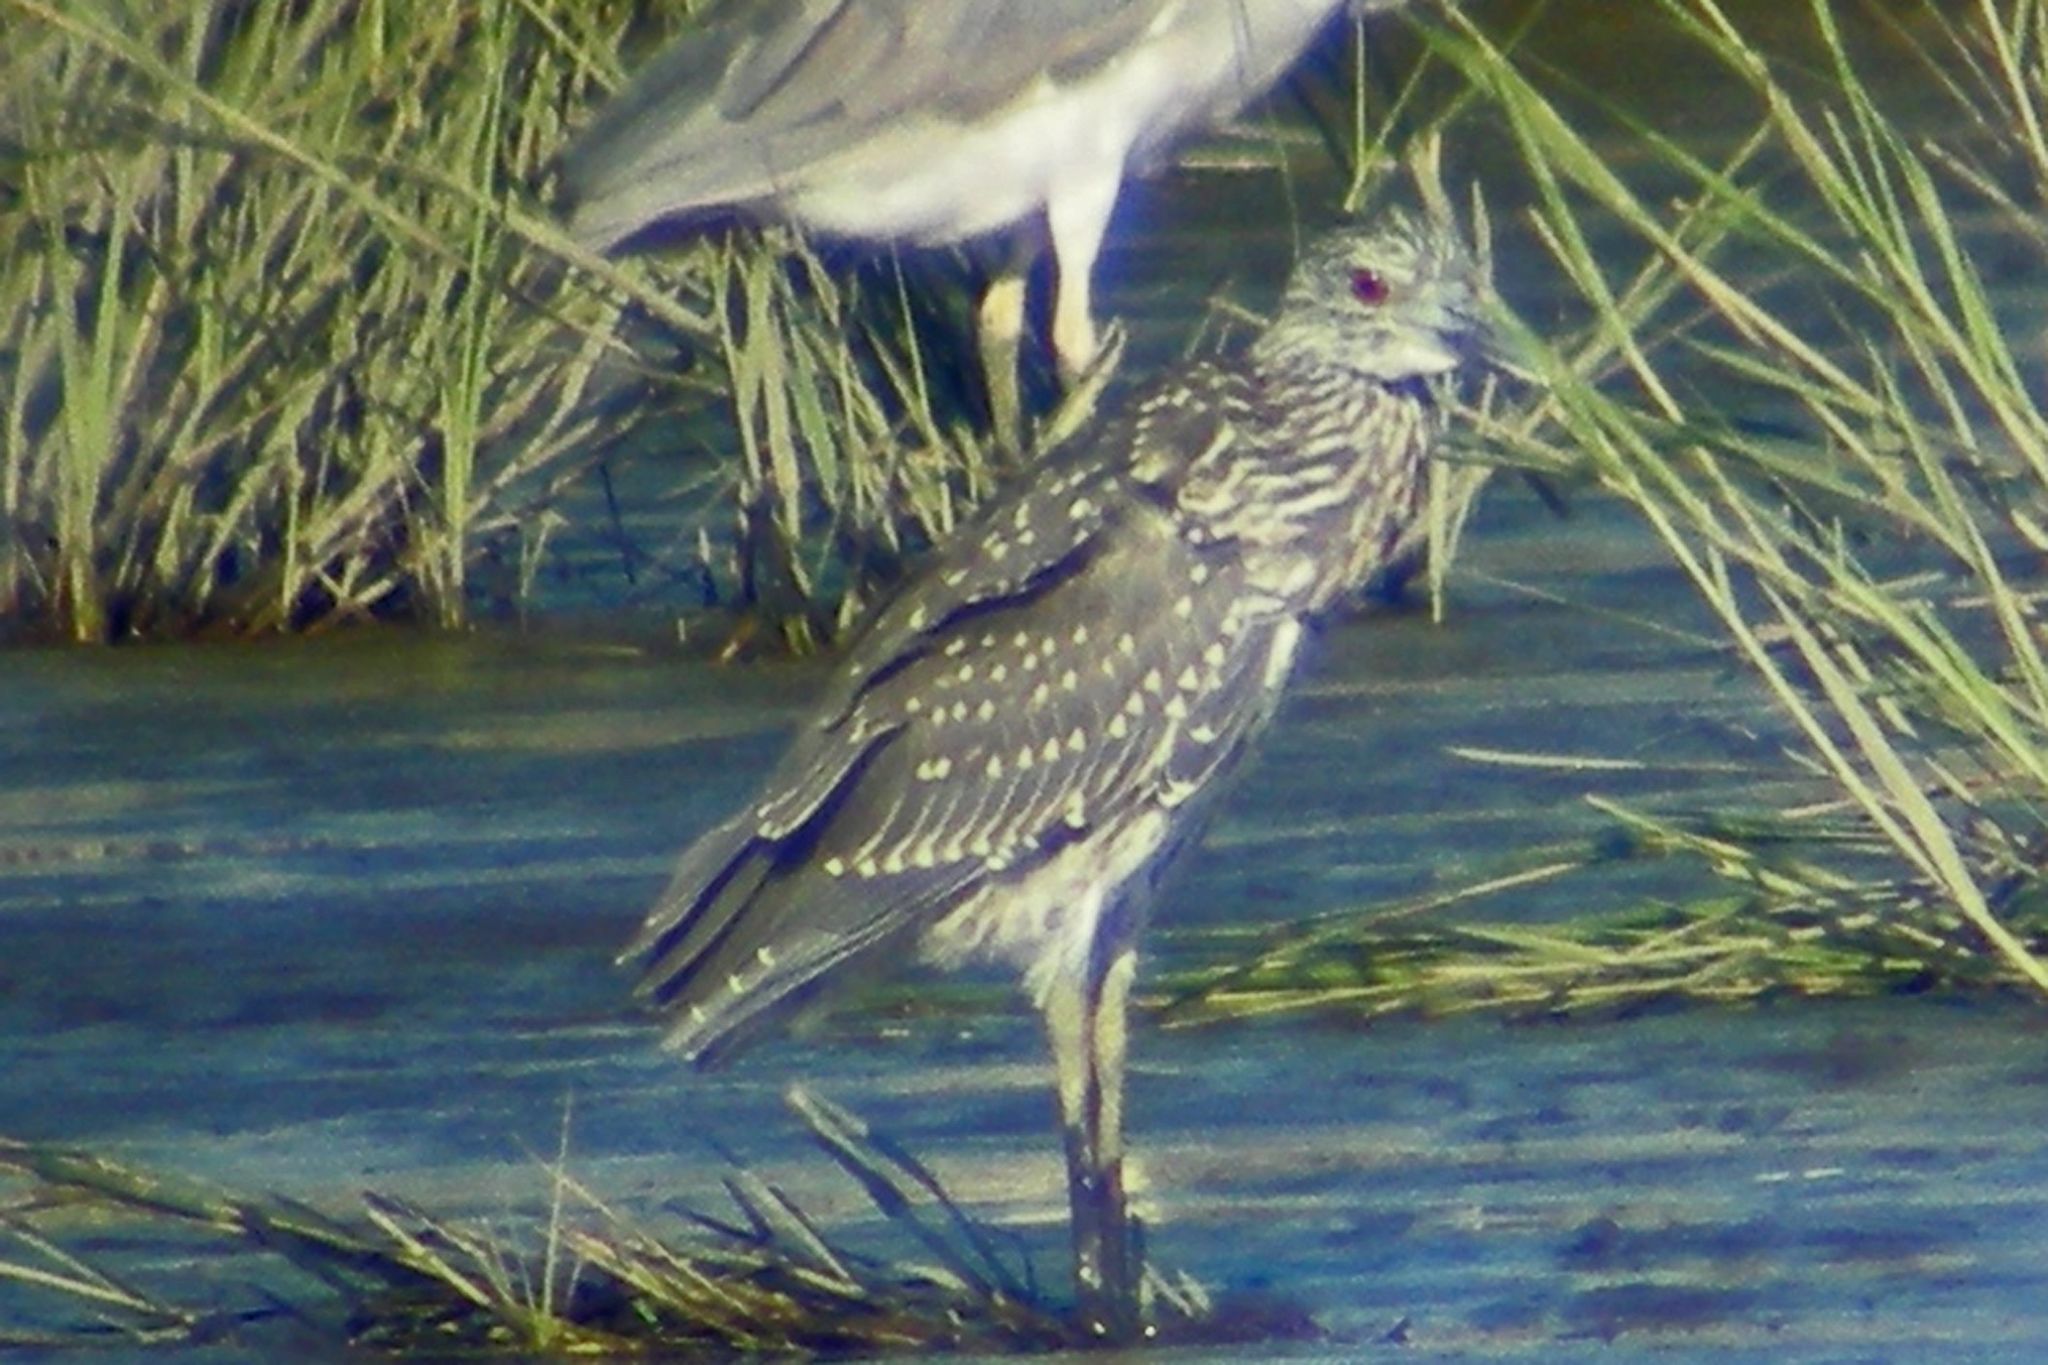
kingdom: Animalia
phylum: Chordata
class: Aves
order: Pelecaniformes
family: Ardeidae
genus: Nyctanassa
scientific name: Nyctanassa violacea
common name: Yellow-crowned night heron
